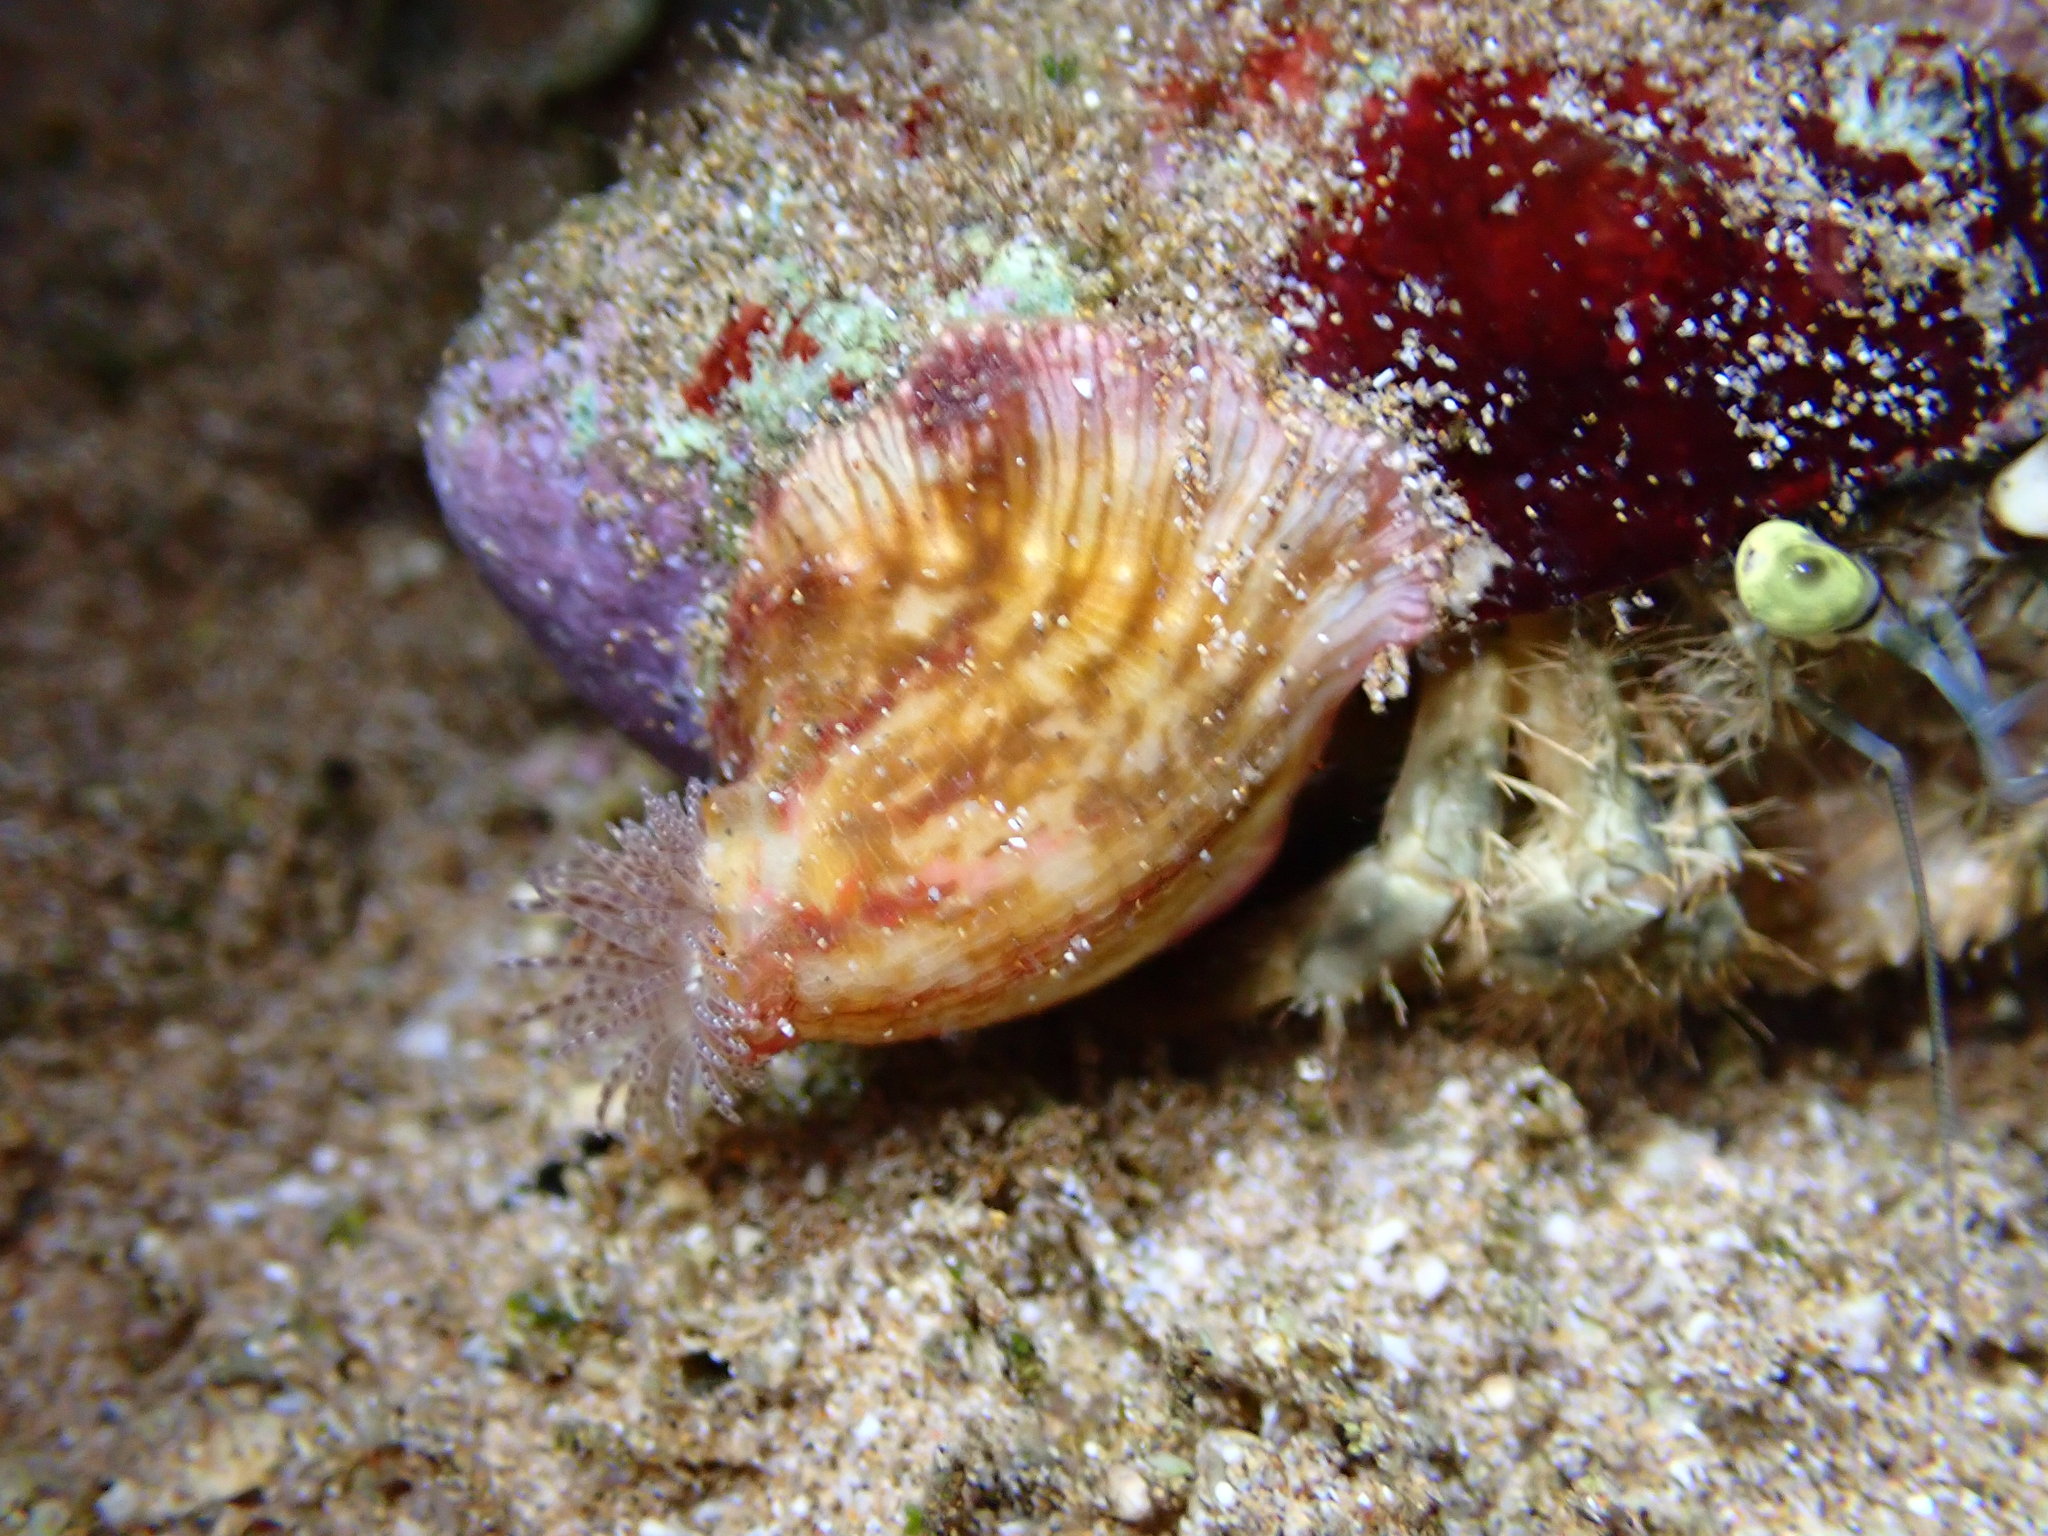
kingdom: Animalia
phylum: Cnidaria
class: Anthozoa
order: Actiniaria
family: Hormathiidae
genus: Calliactis
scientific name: Calliactis polypus
